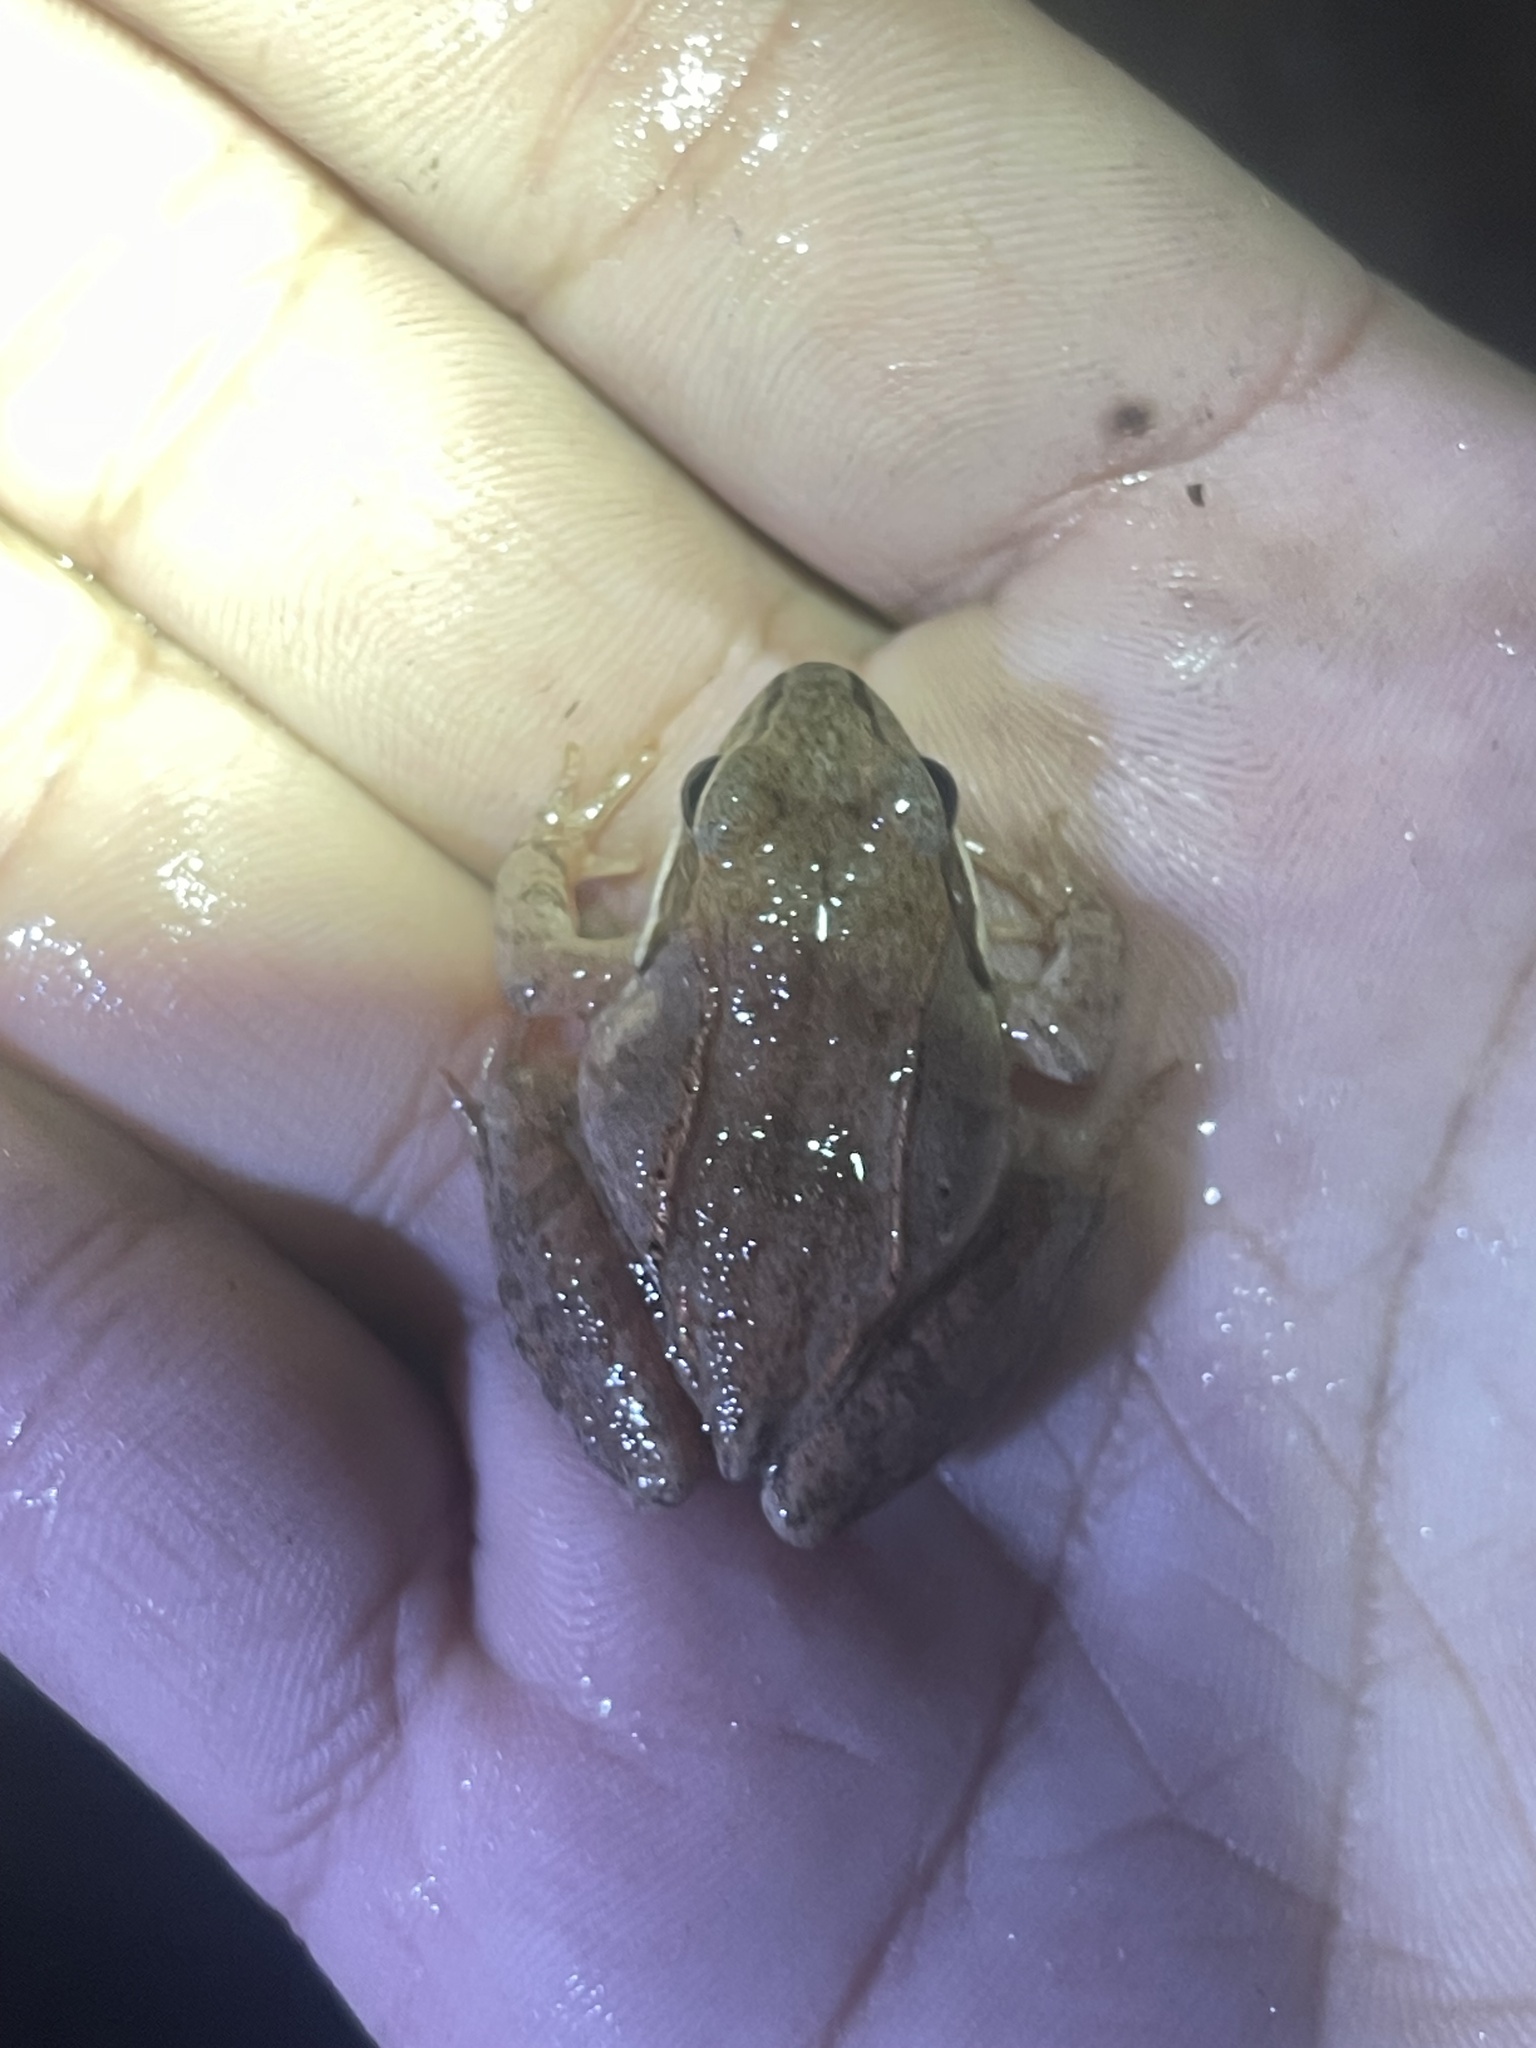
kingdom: Animalia
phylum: Chordata
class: Amphibia
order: Anura
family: Ranidae
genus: Lithobates
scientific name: Lithobates sylvaticus
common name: Wood frog
